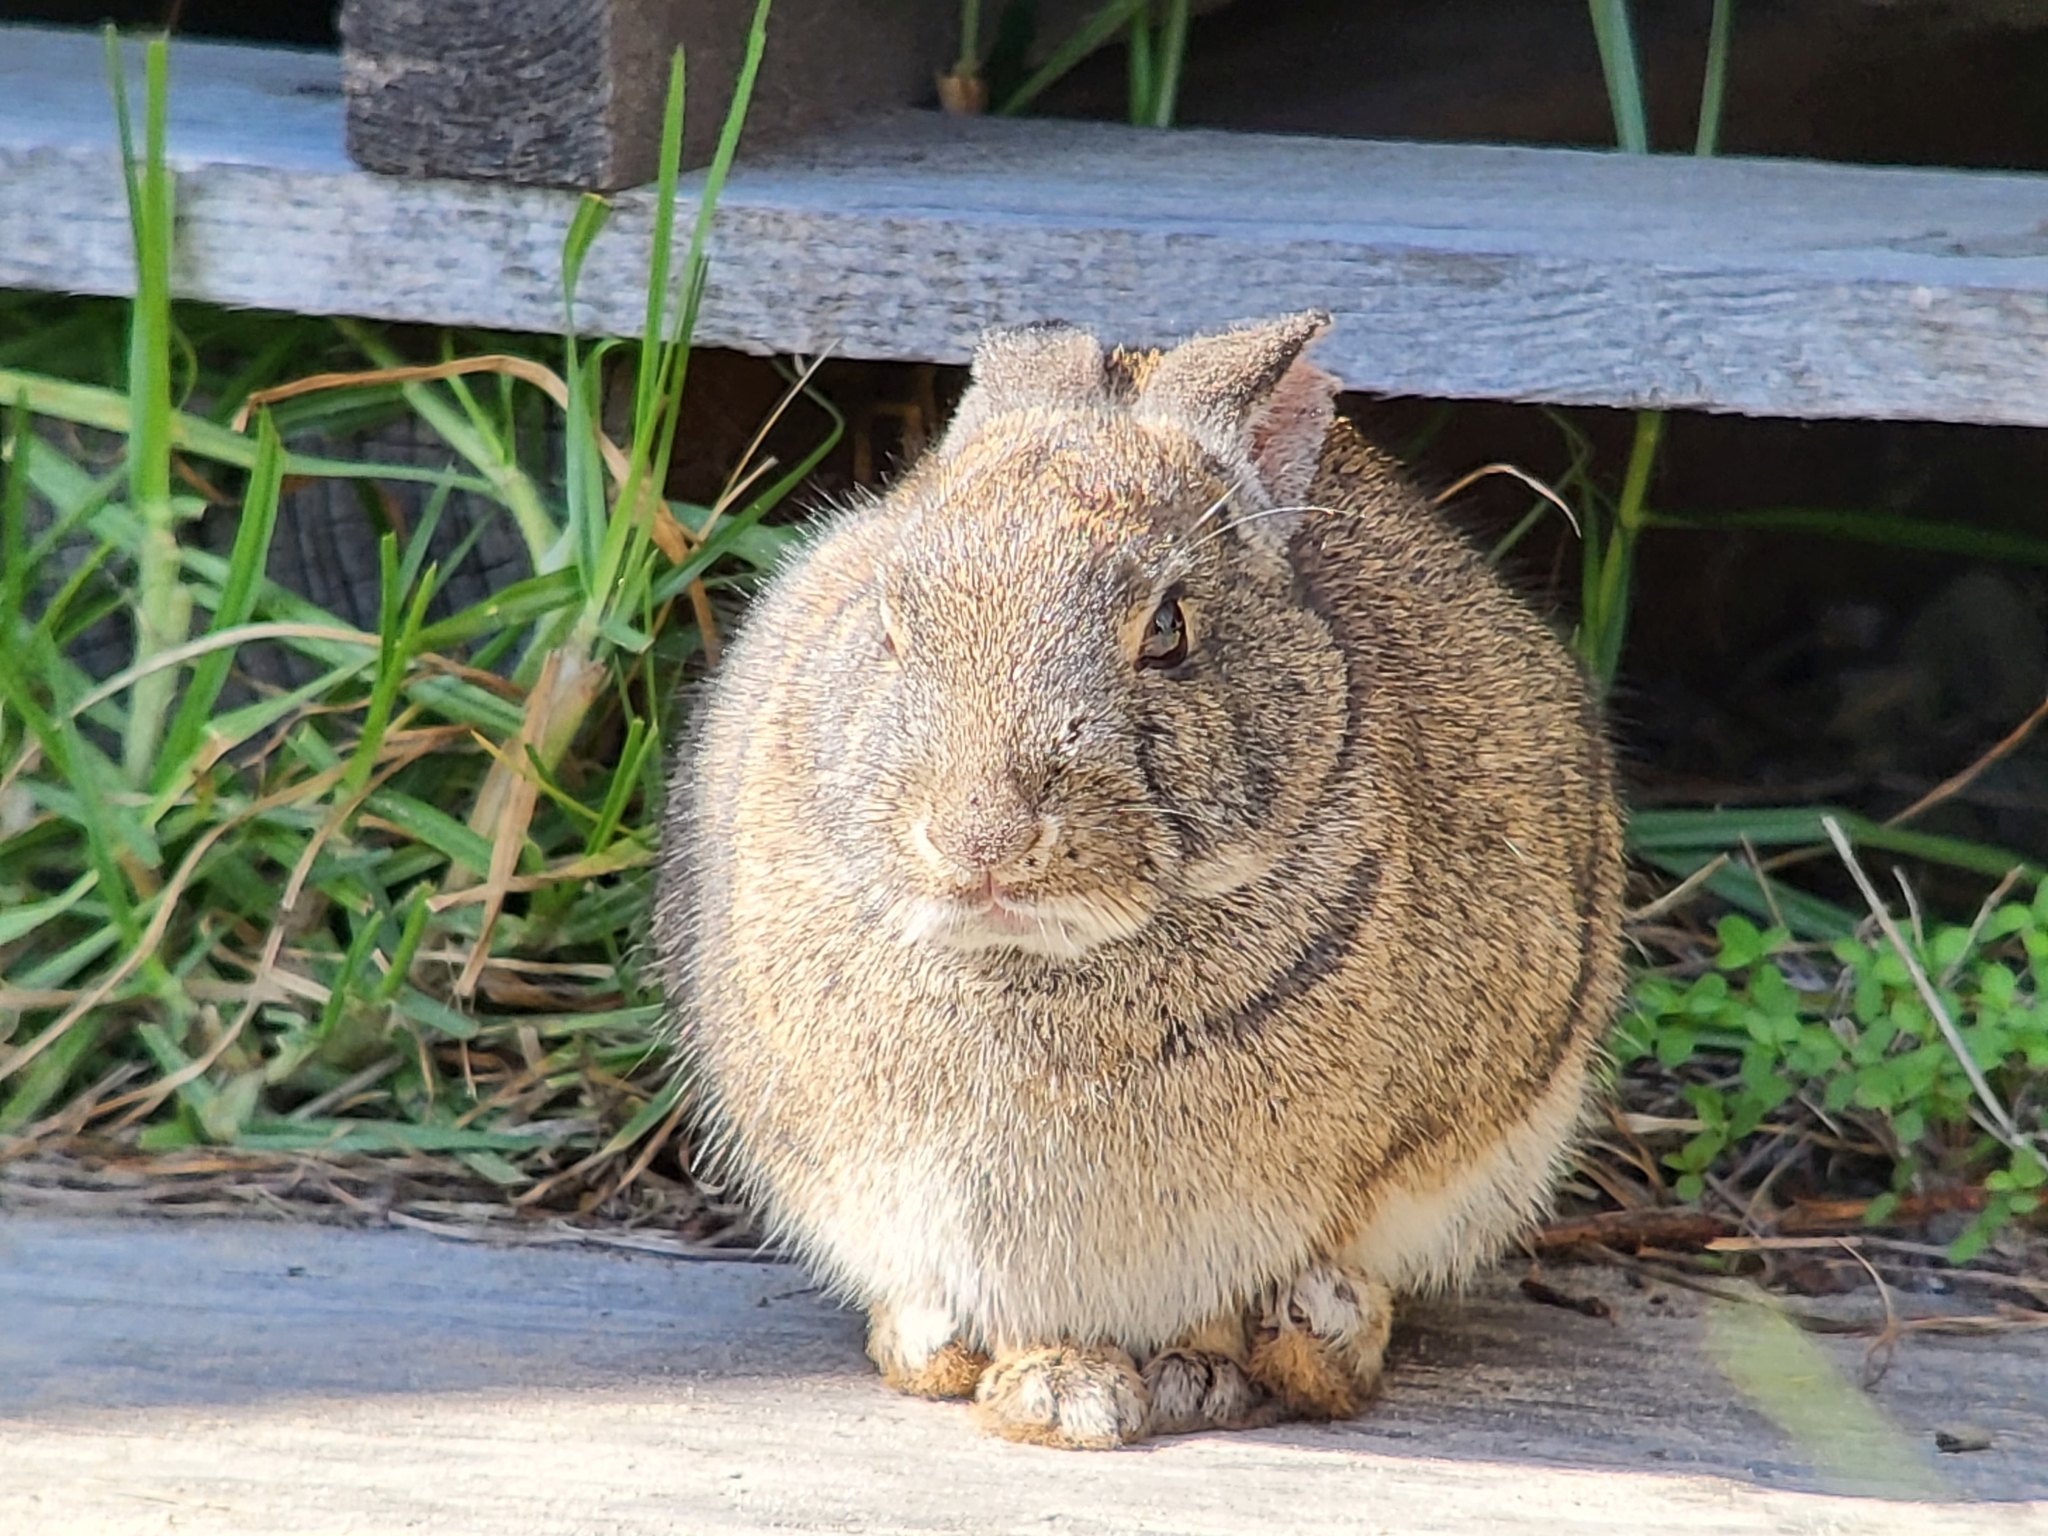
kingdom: Animalia
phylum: Chordata
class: Mammalia
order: Lagomorpha
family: Leporidae
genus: Sylvilagus
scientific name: Sylvilagus bachmani
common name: Brush rabbit
